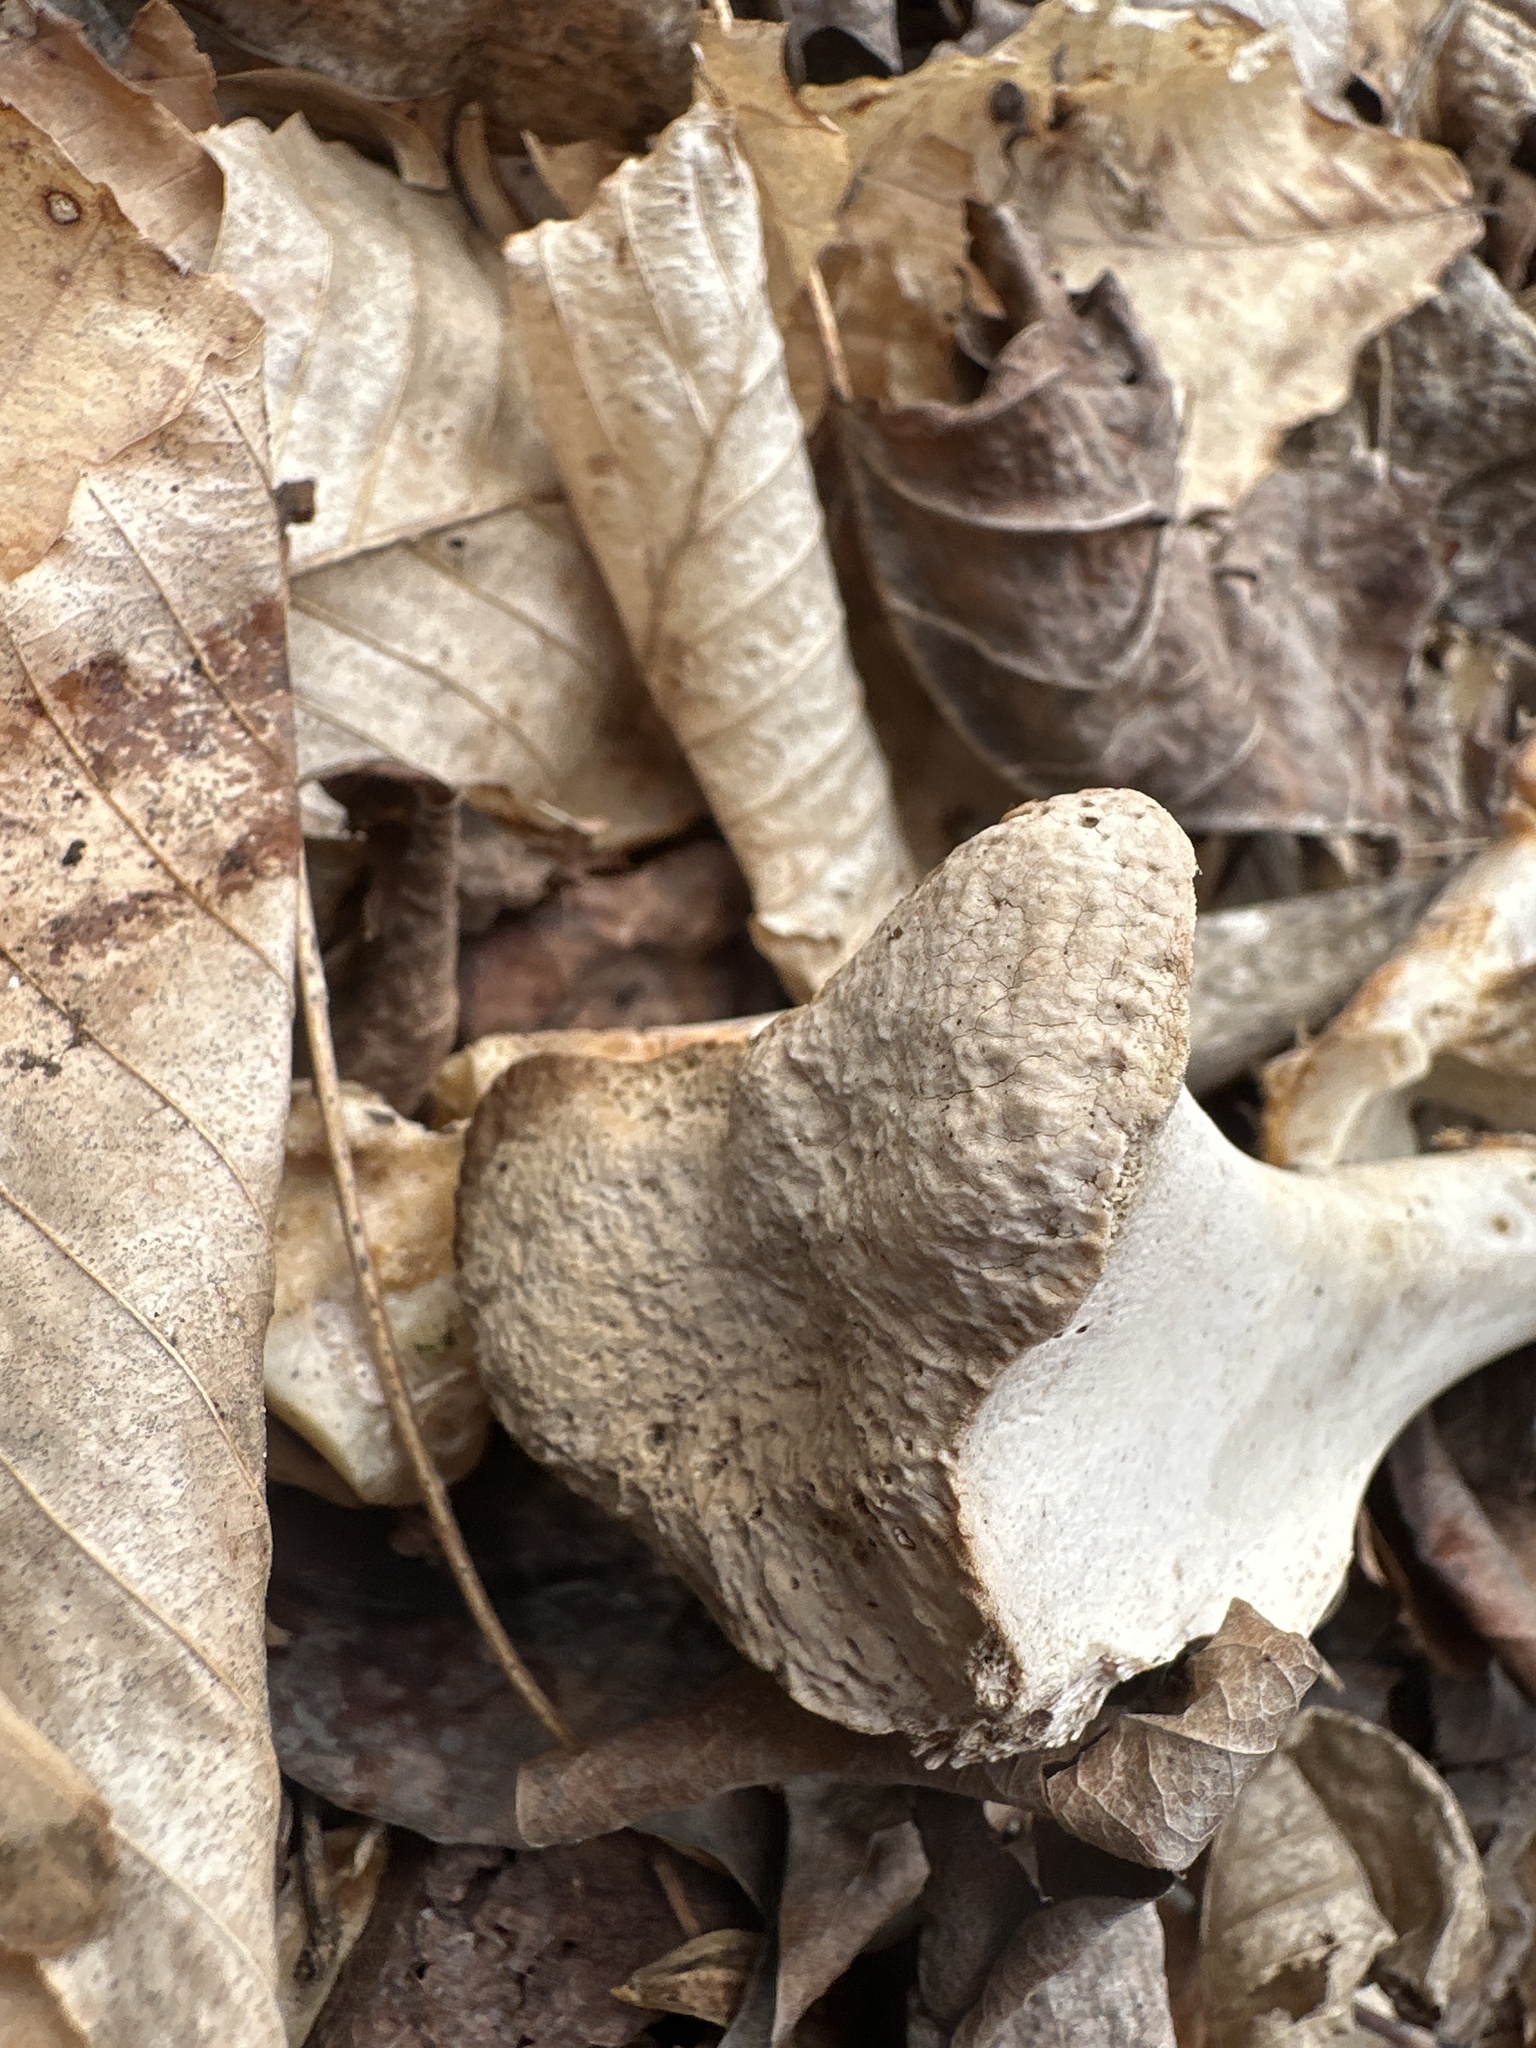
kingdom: Animalia
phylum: Chordata
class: Mammalia
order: Artiodactyla
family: Cervidae
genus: Odocoileus
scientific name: Odocoileus virginianus
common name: White-tailed deer
